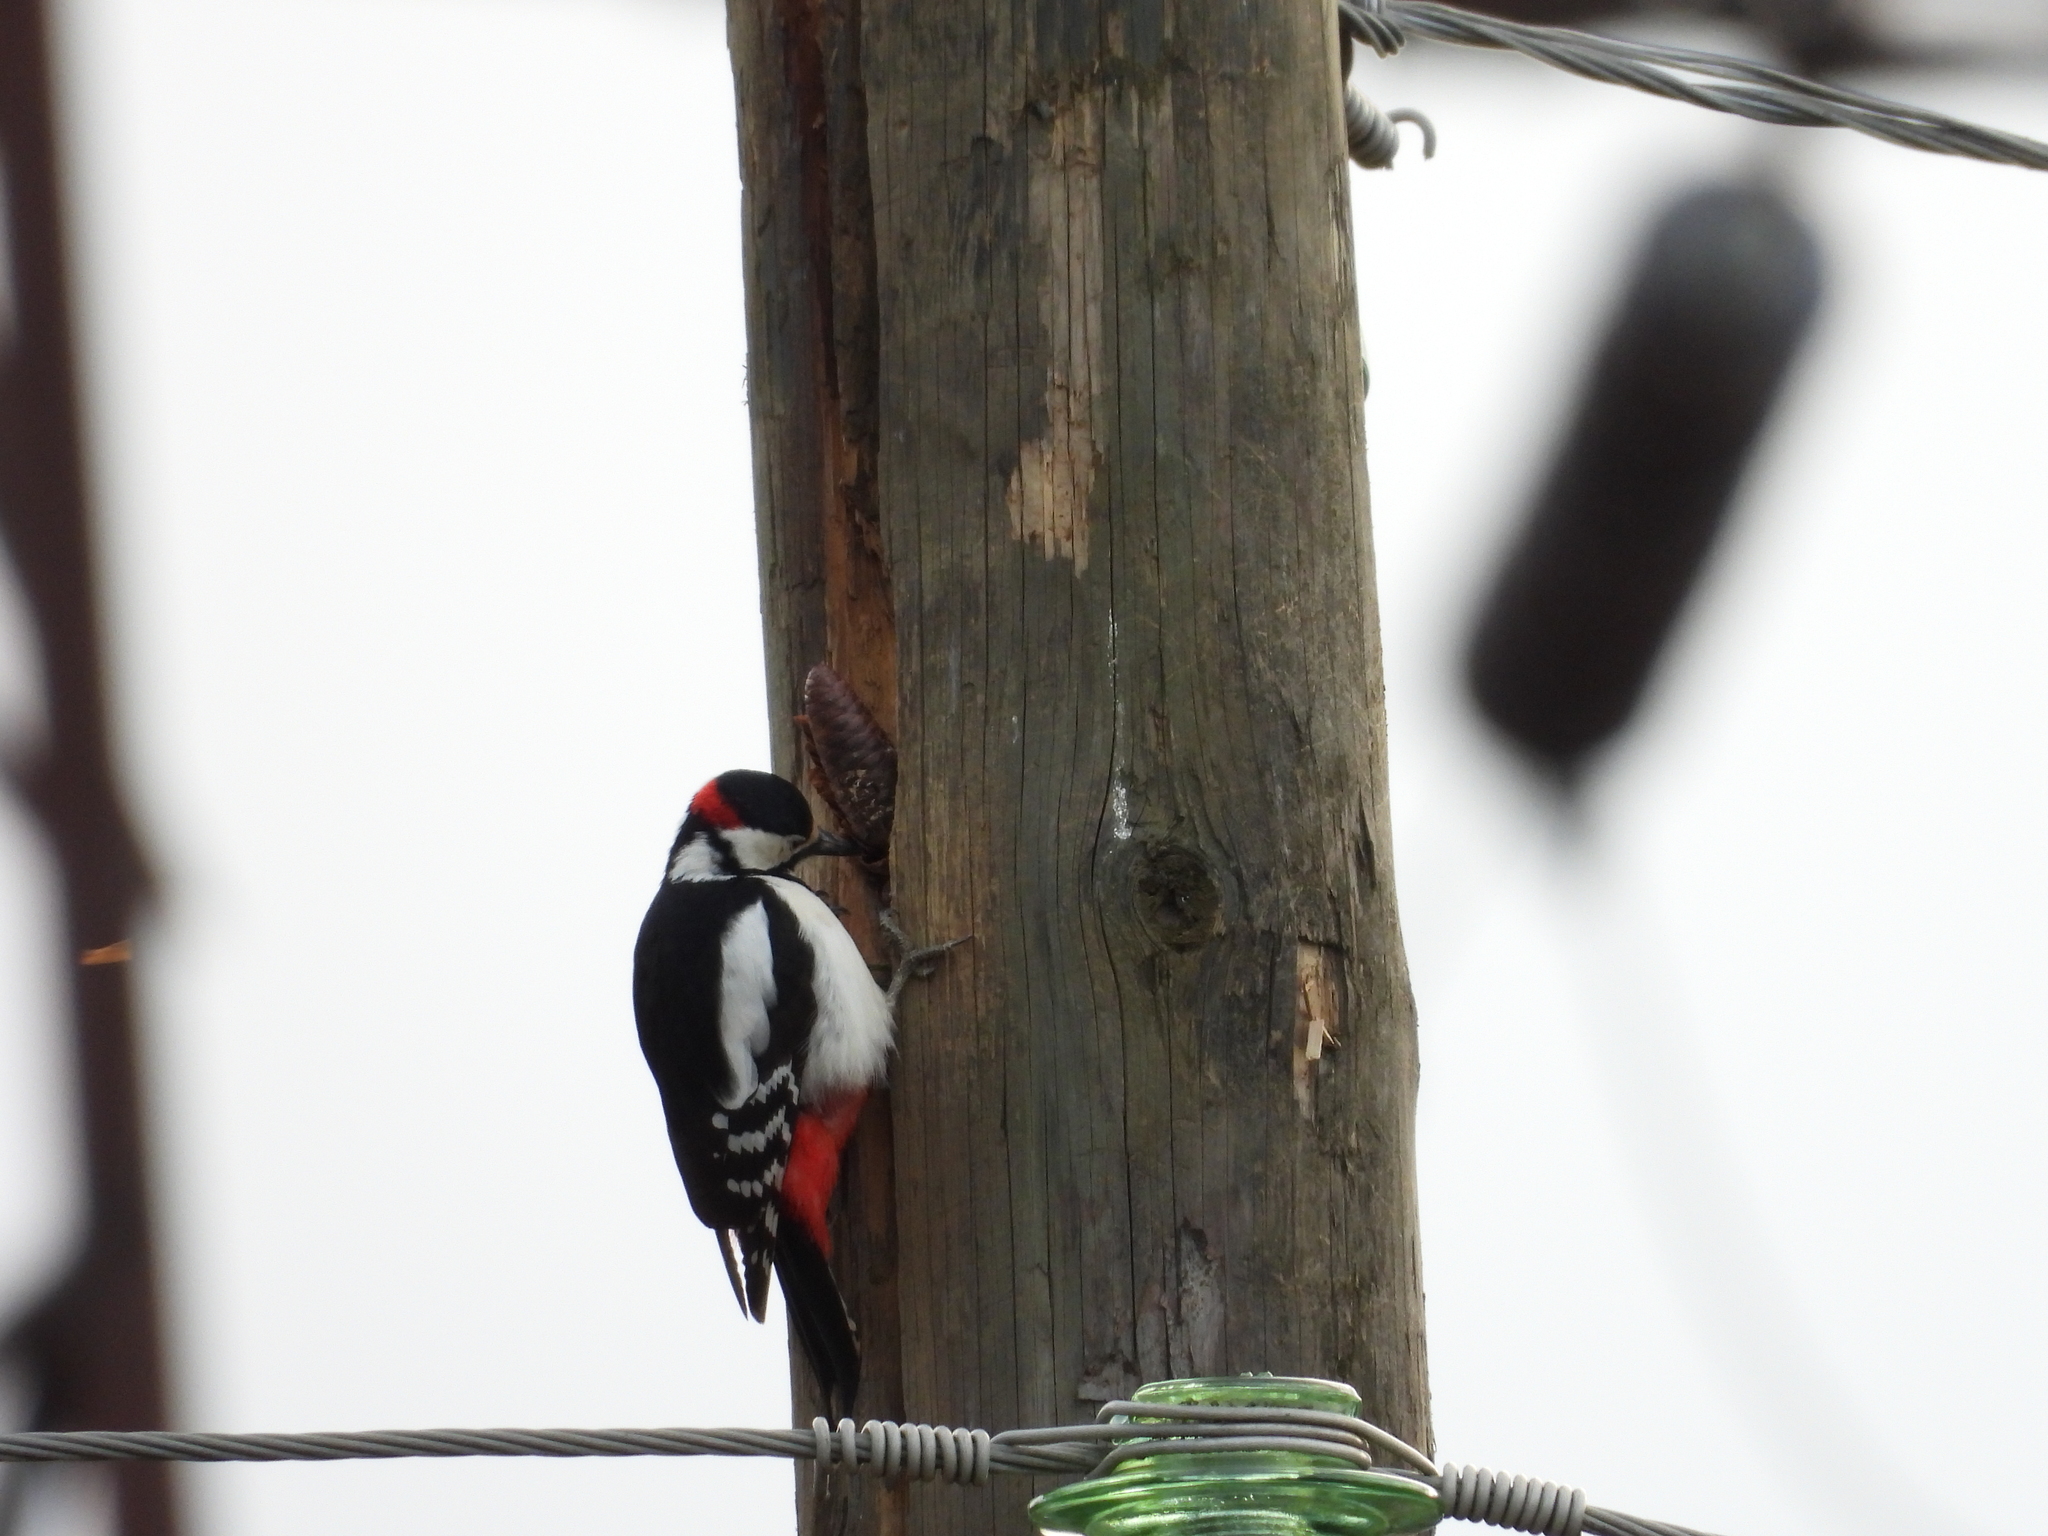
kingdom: Animalia
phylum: Chordata
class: Aves
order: Piciformes
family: Picidae
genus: Dendrocopos
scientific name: Dendrocopos major
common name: Great spotted woodpecker
